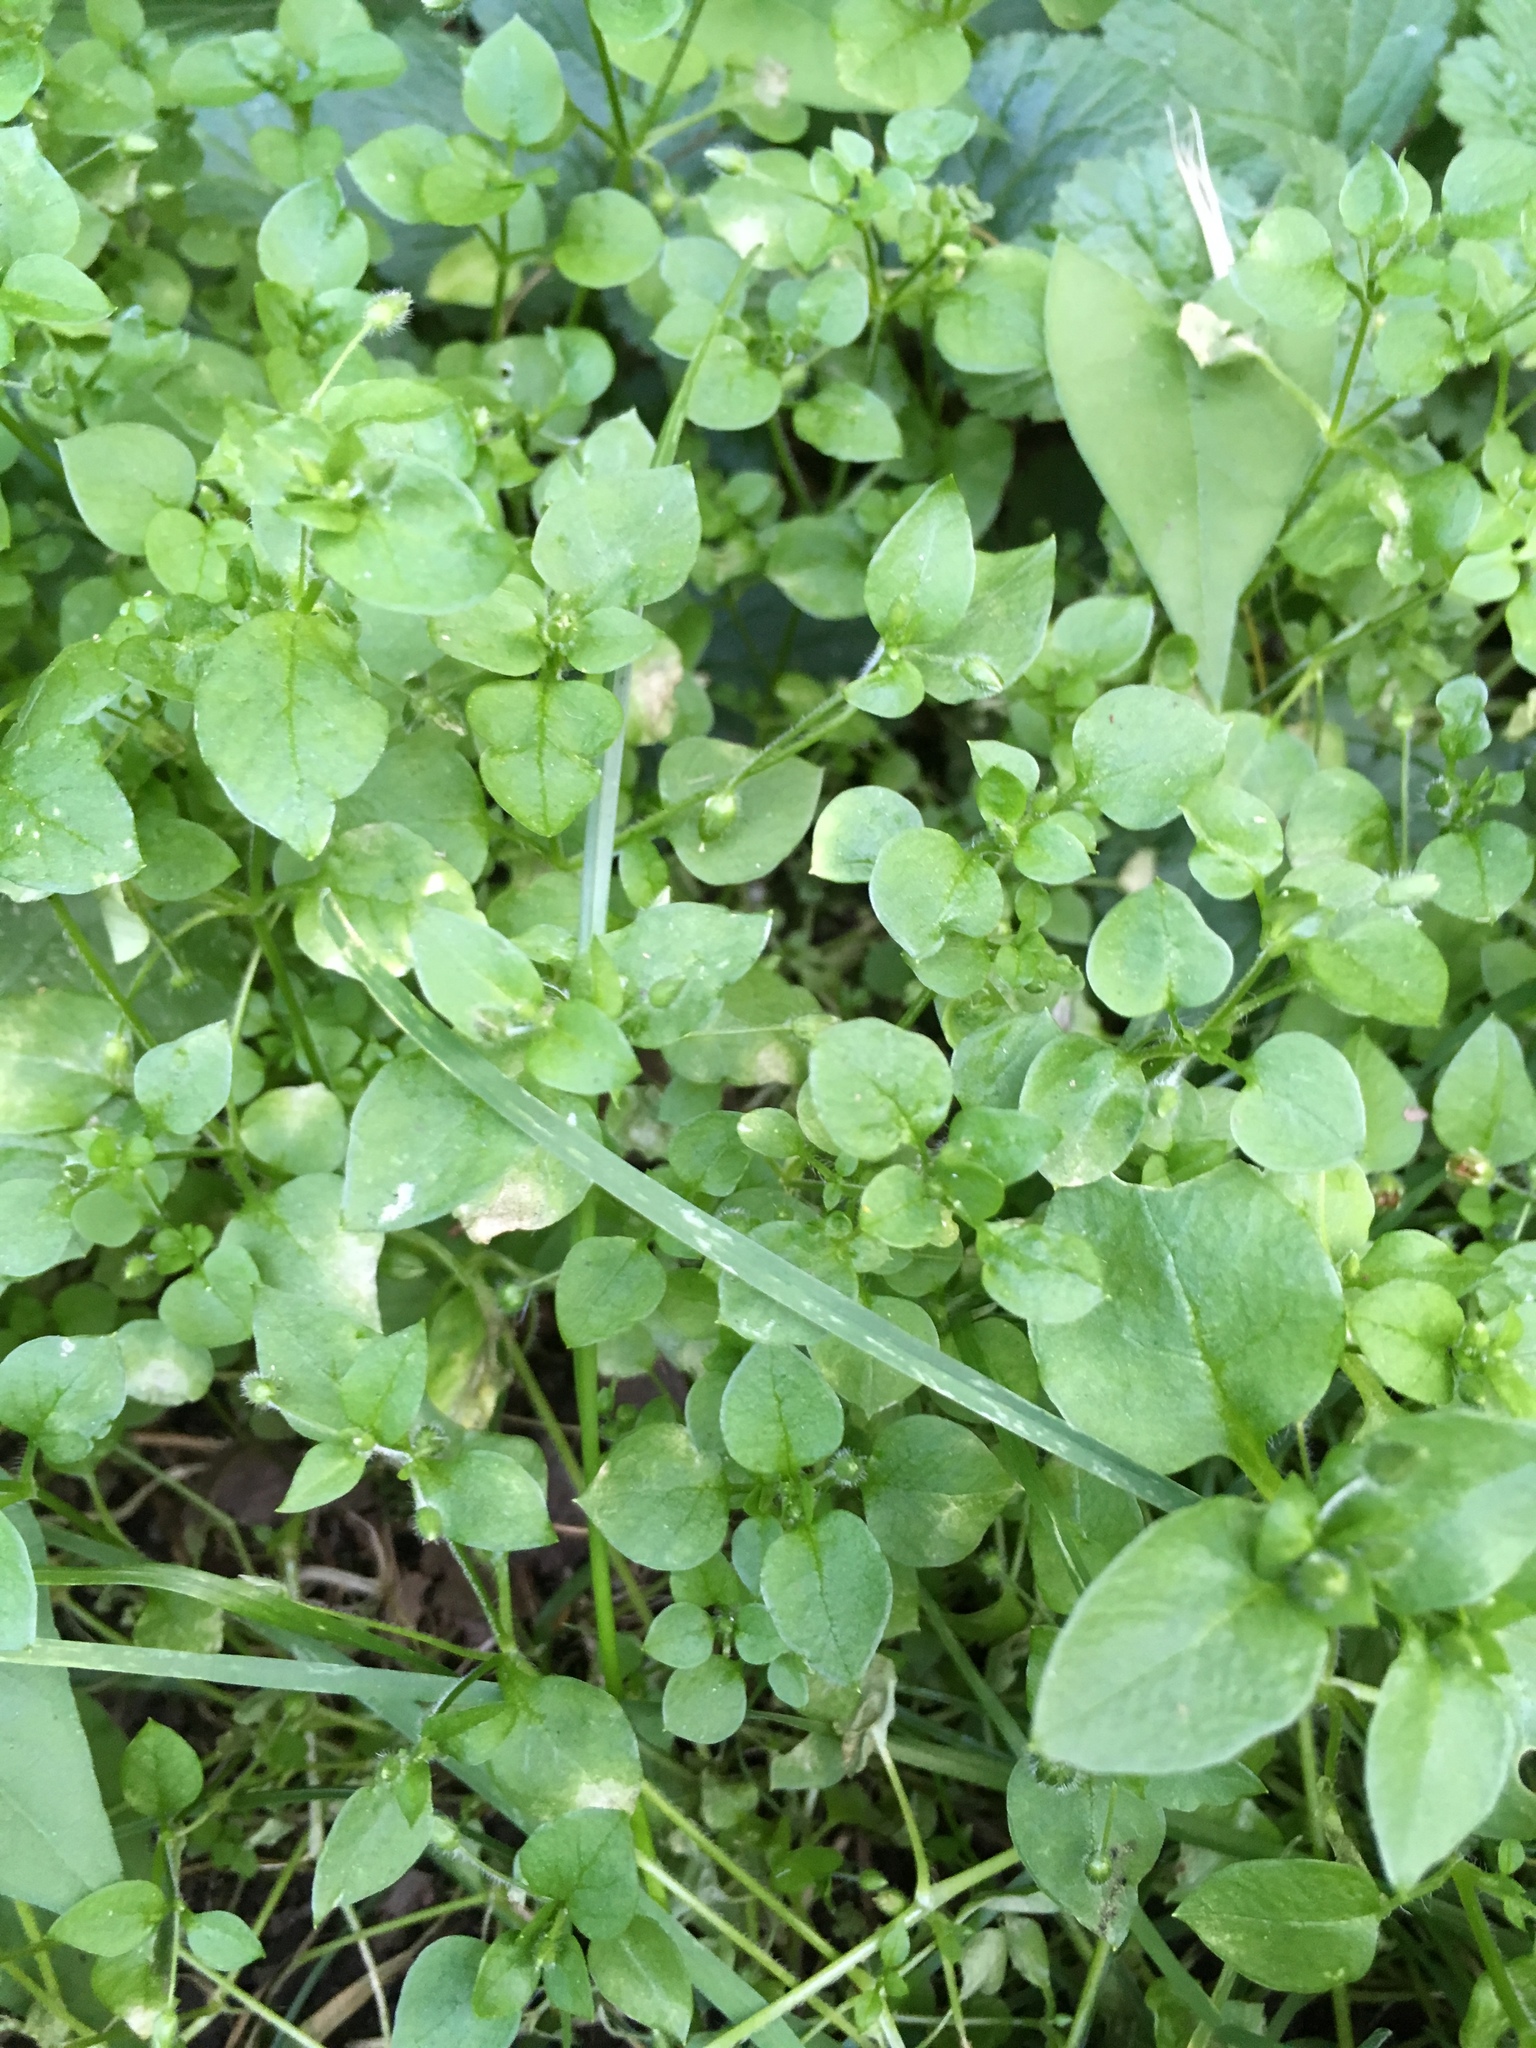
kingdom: Plantae
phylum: Tracheophyta
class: Magnoliopsida
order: Caryophyllales
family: Caryophyllaceae
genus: Stellaria
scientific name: Stellaria media
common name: Common chickweed
